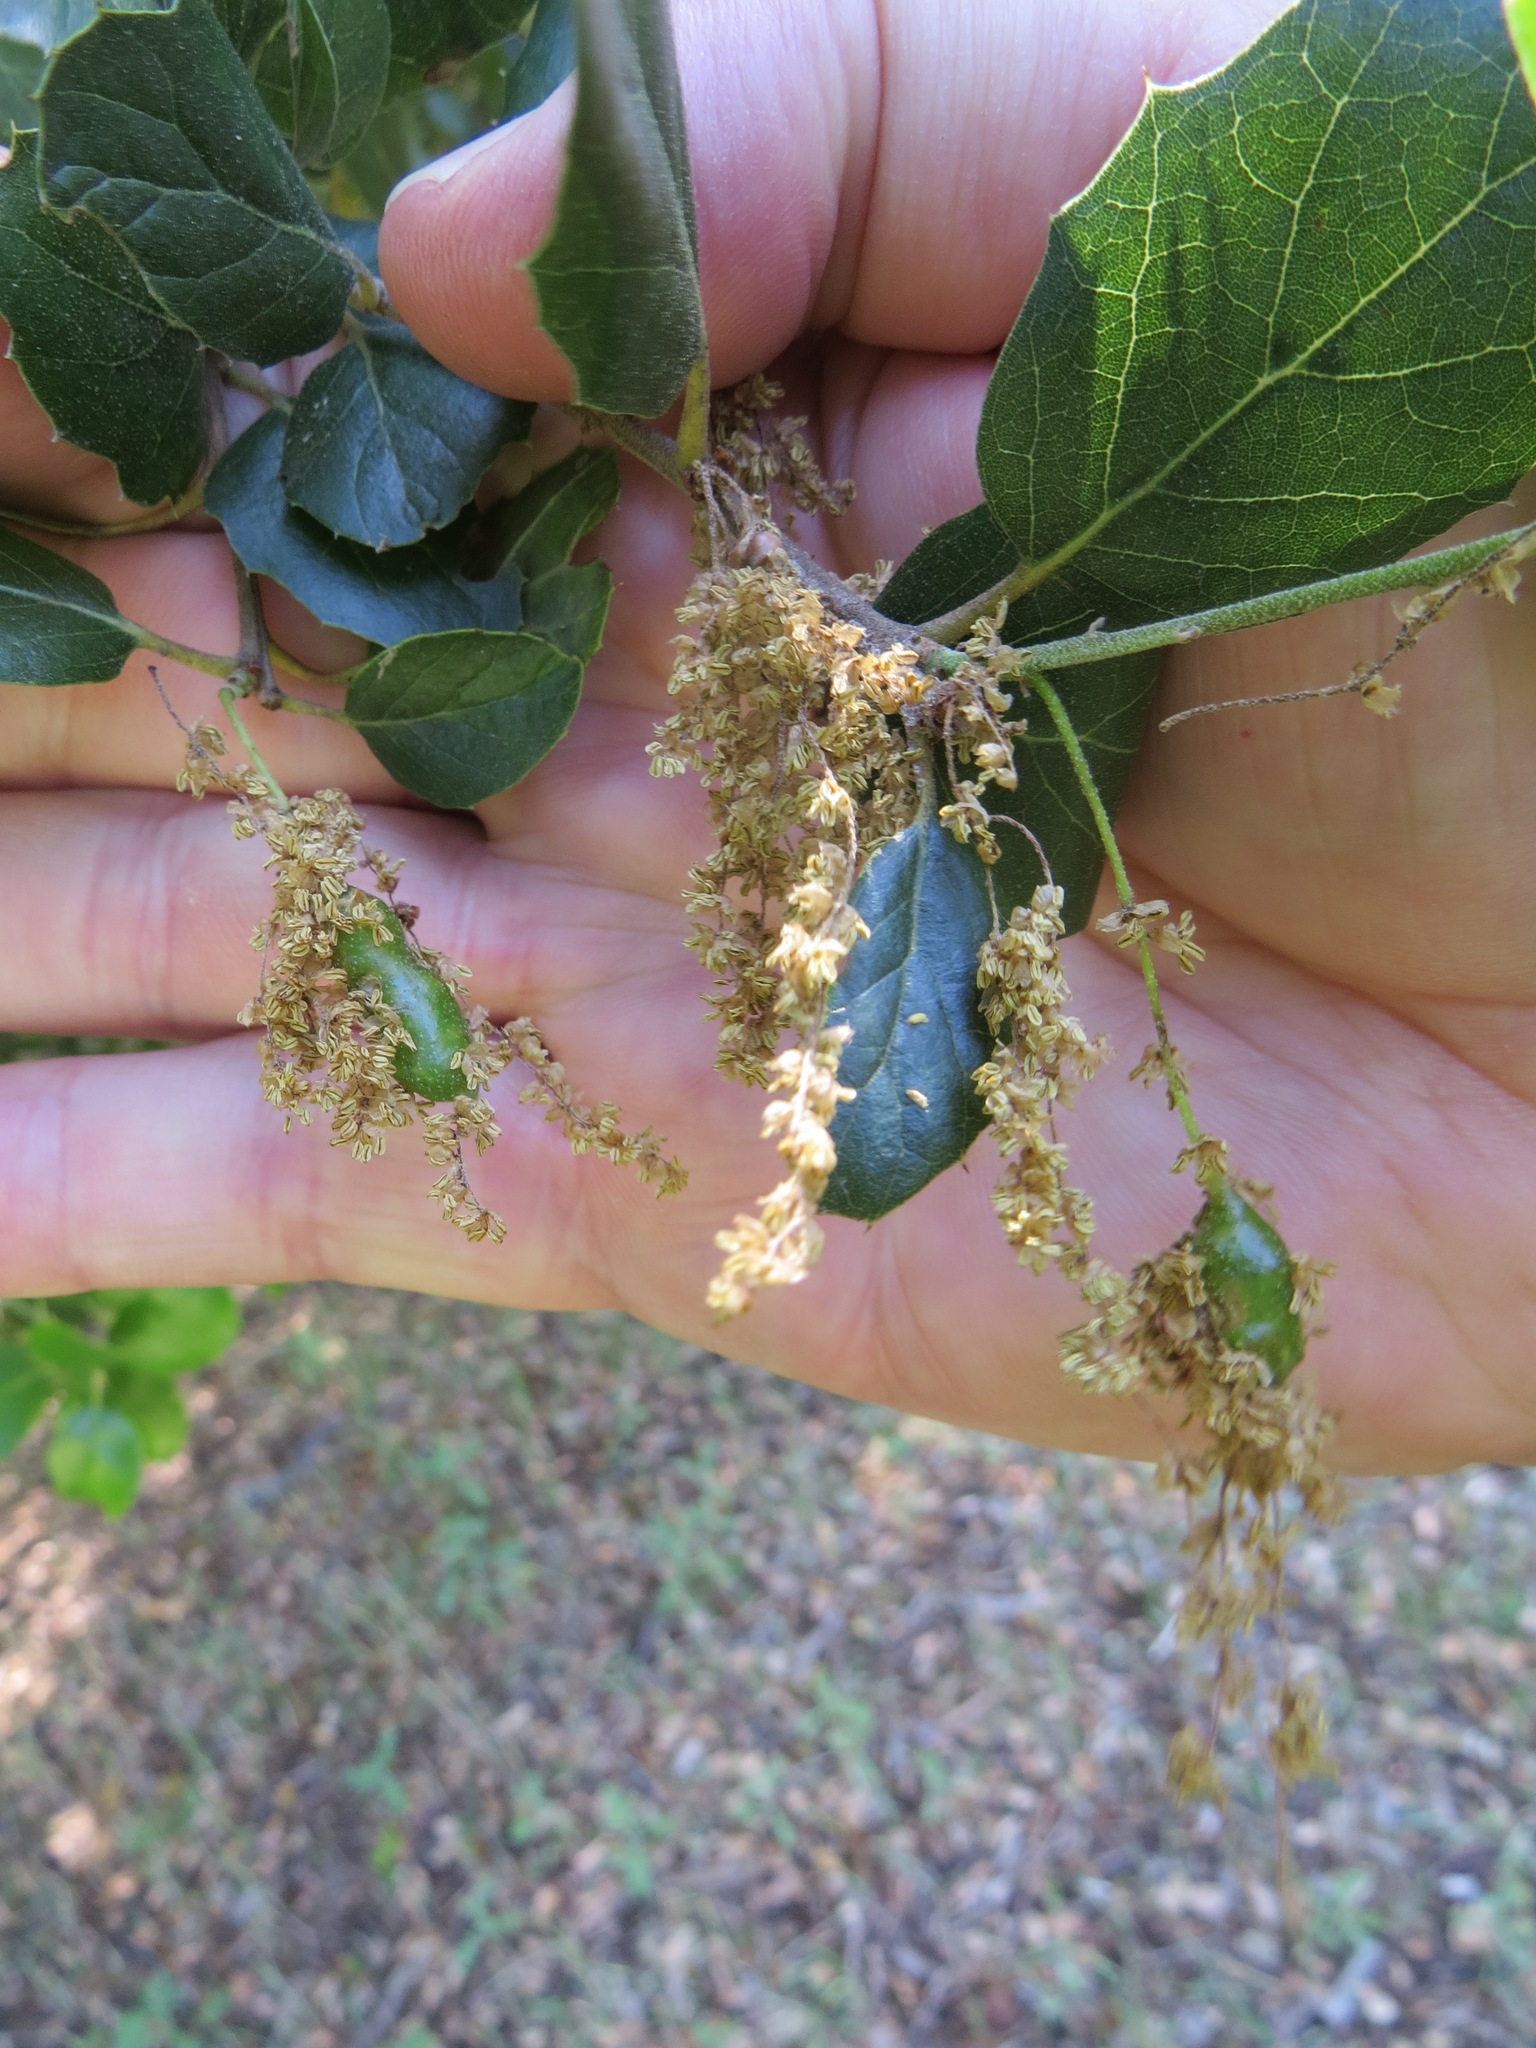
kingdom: Animalia
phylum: Arthropoda
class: Insecta
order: Hymenoptera
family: Cynipidae
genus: Callirhytis
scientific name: Callirhytis
